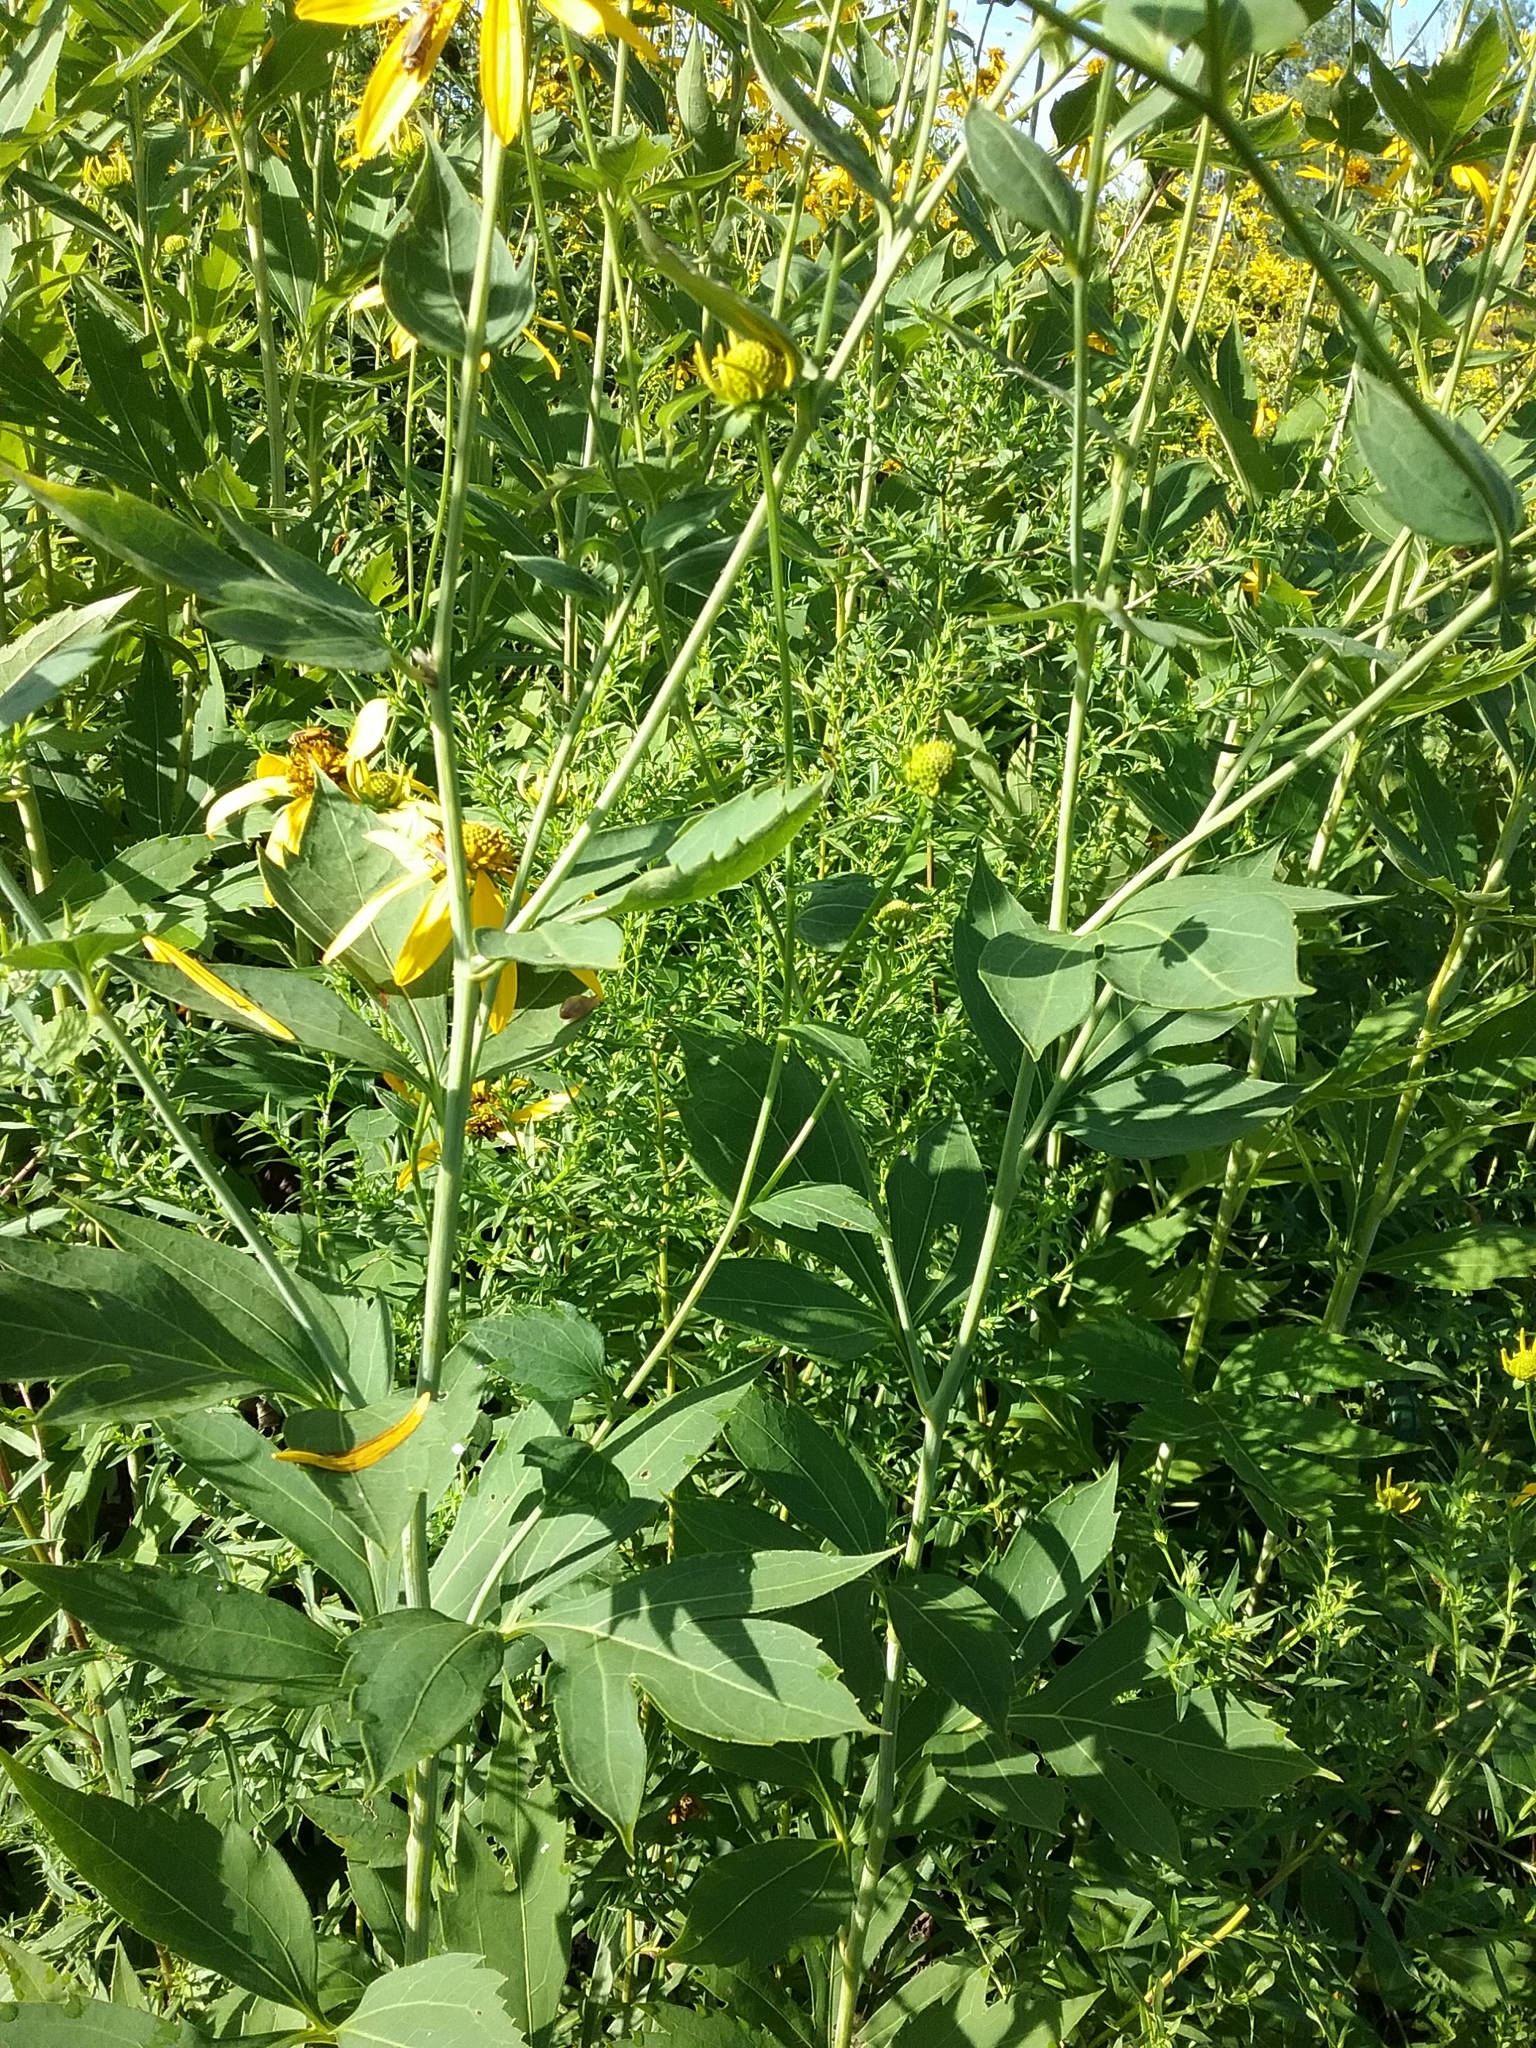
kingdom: Plantae
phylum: Tracheophyta
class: Magnoliopsida
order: Asterales
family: Asteraceae
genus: Rudbeckia
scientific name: Rudbeckia laciniata
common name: Coneflower
